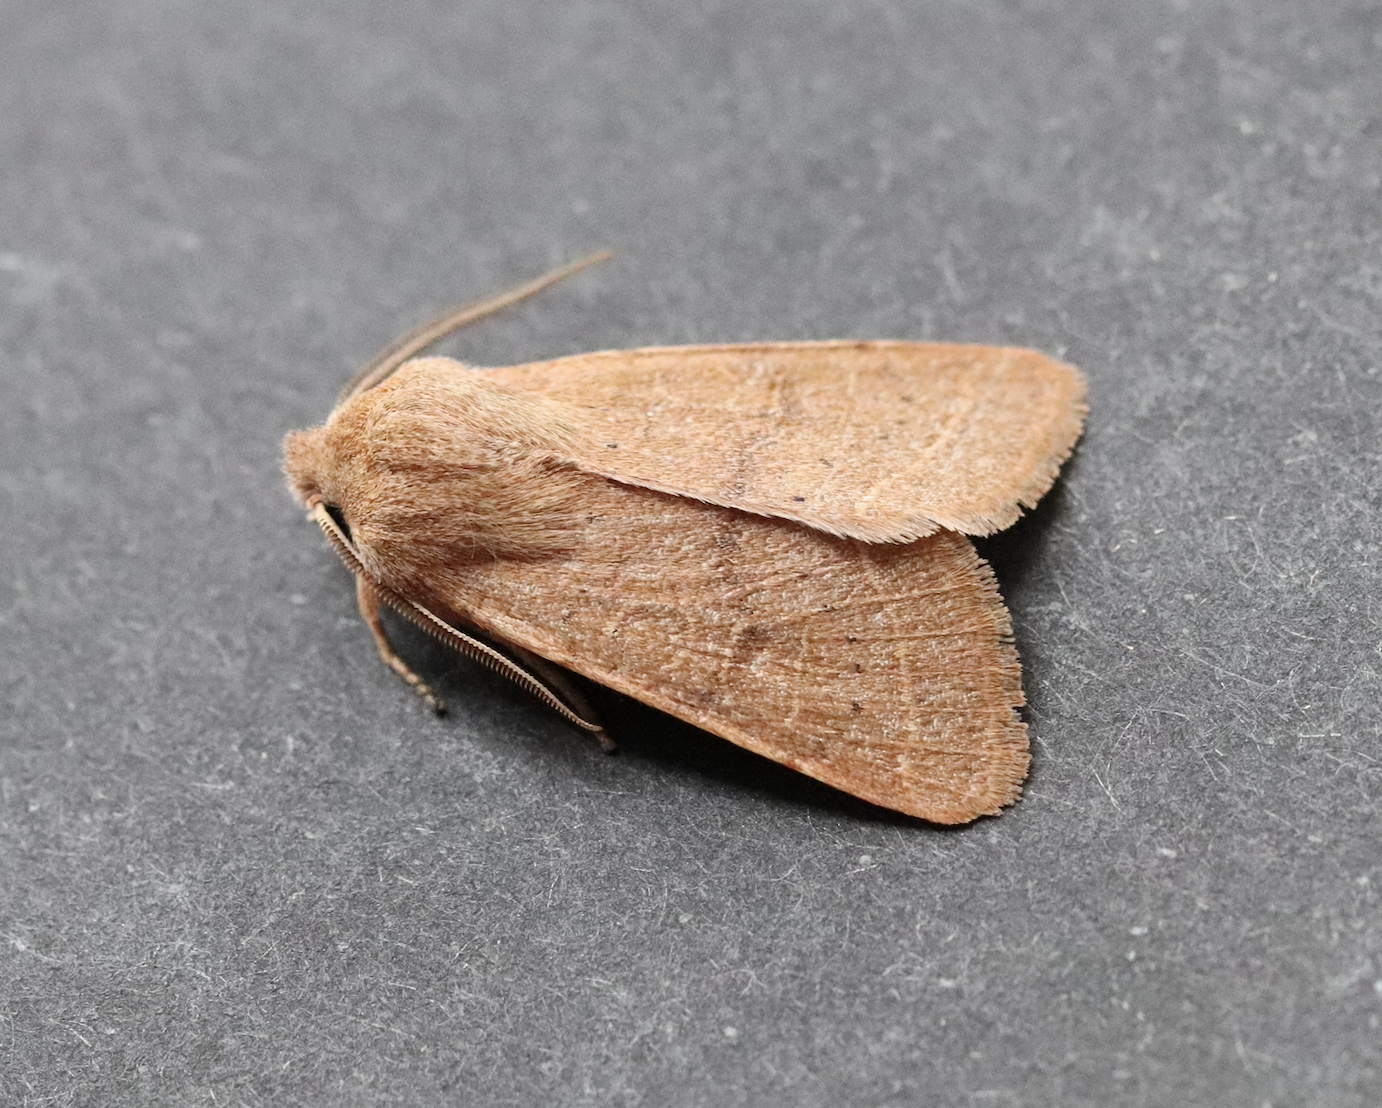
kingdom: Animalia
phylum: Arthropoda
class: Insecta
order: Lepidoptera
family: Noctuidae
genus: Orthosia
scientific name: Orthosia cerasi
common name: Common quaker
